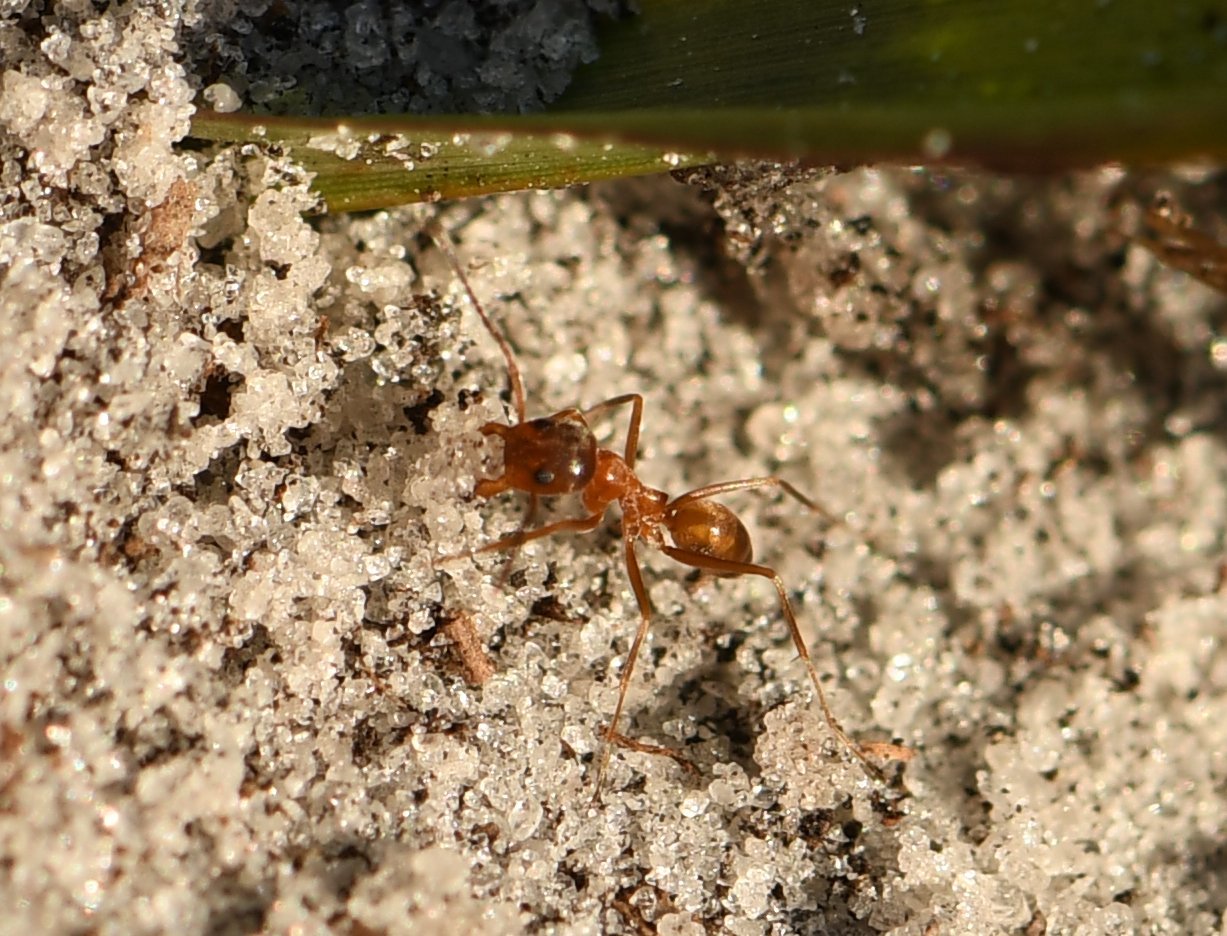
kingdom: Animalia
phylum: Arthropoda
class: Insecta
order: Hymenoptera
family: Formicidae
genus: Dorymyrmex
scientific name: Dorymyrmex bureni
